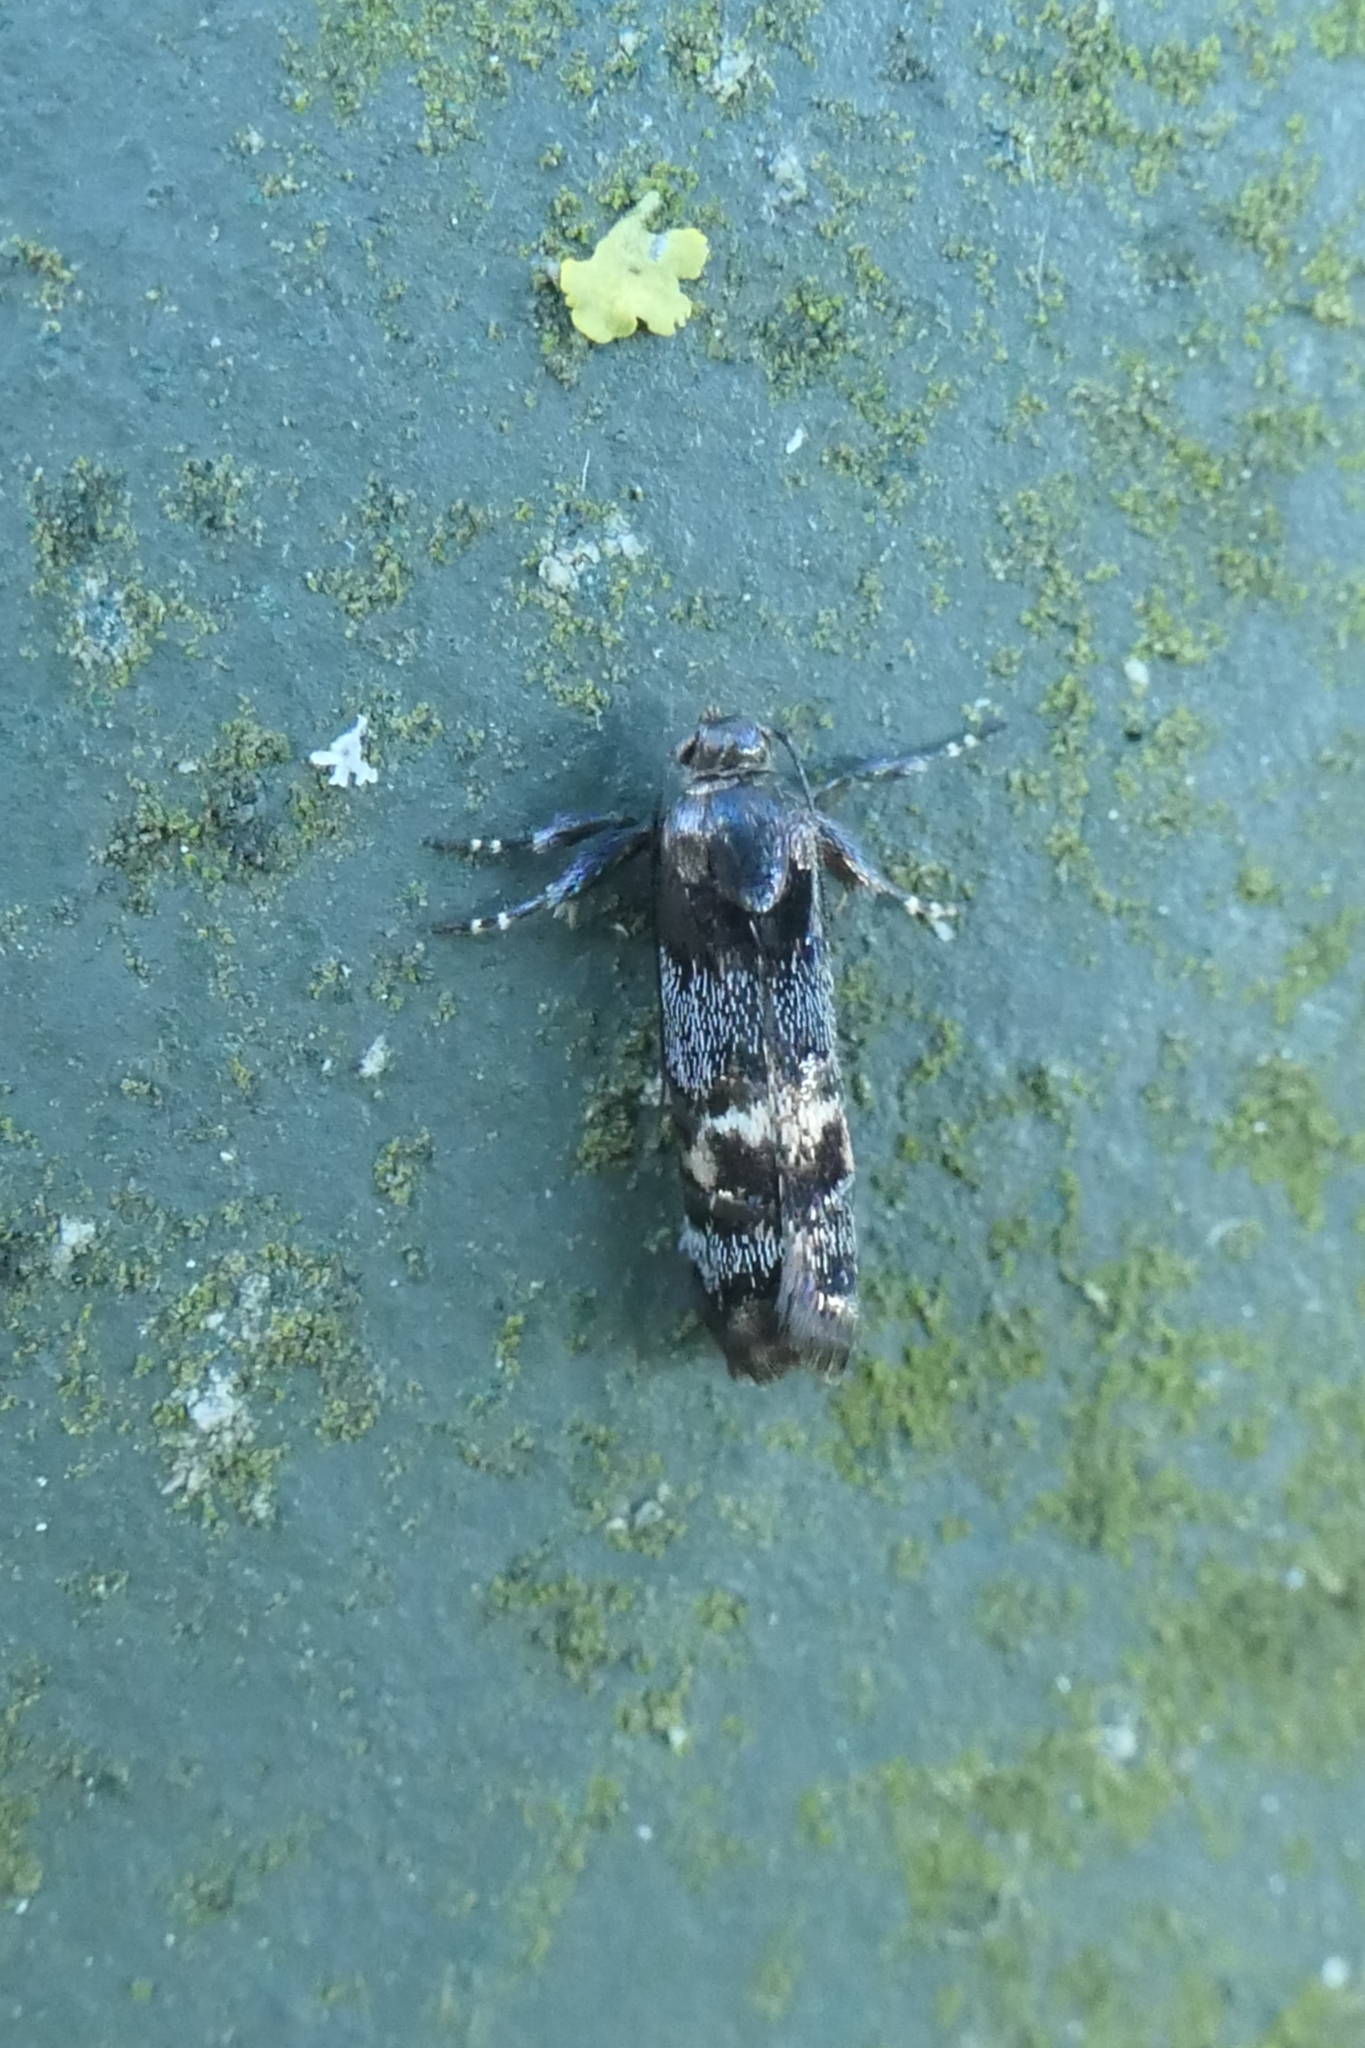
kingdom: Animalia
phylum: Arthropoda
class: Insecta
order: Lepidoptera
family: Oecophoridae
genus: Hierodoris
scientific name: Hierodoris torrida
